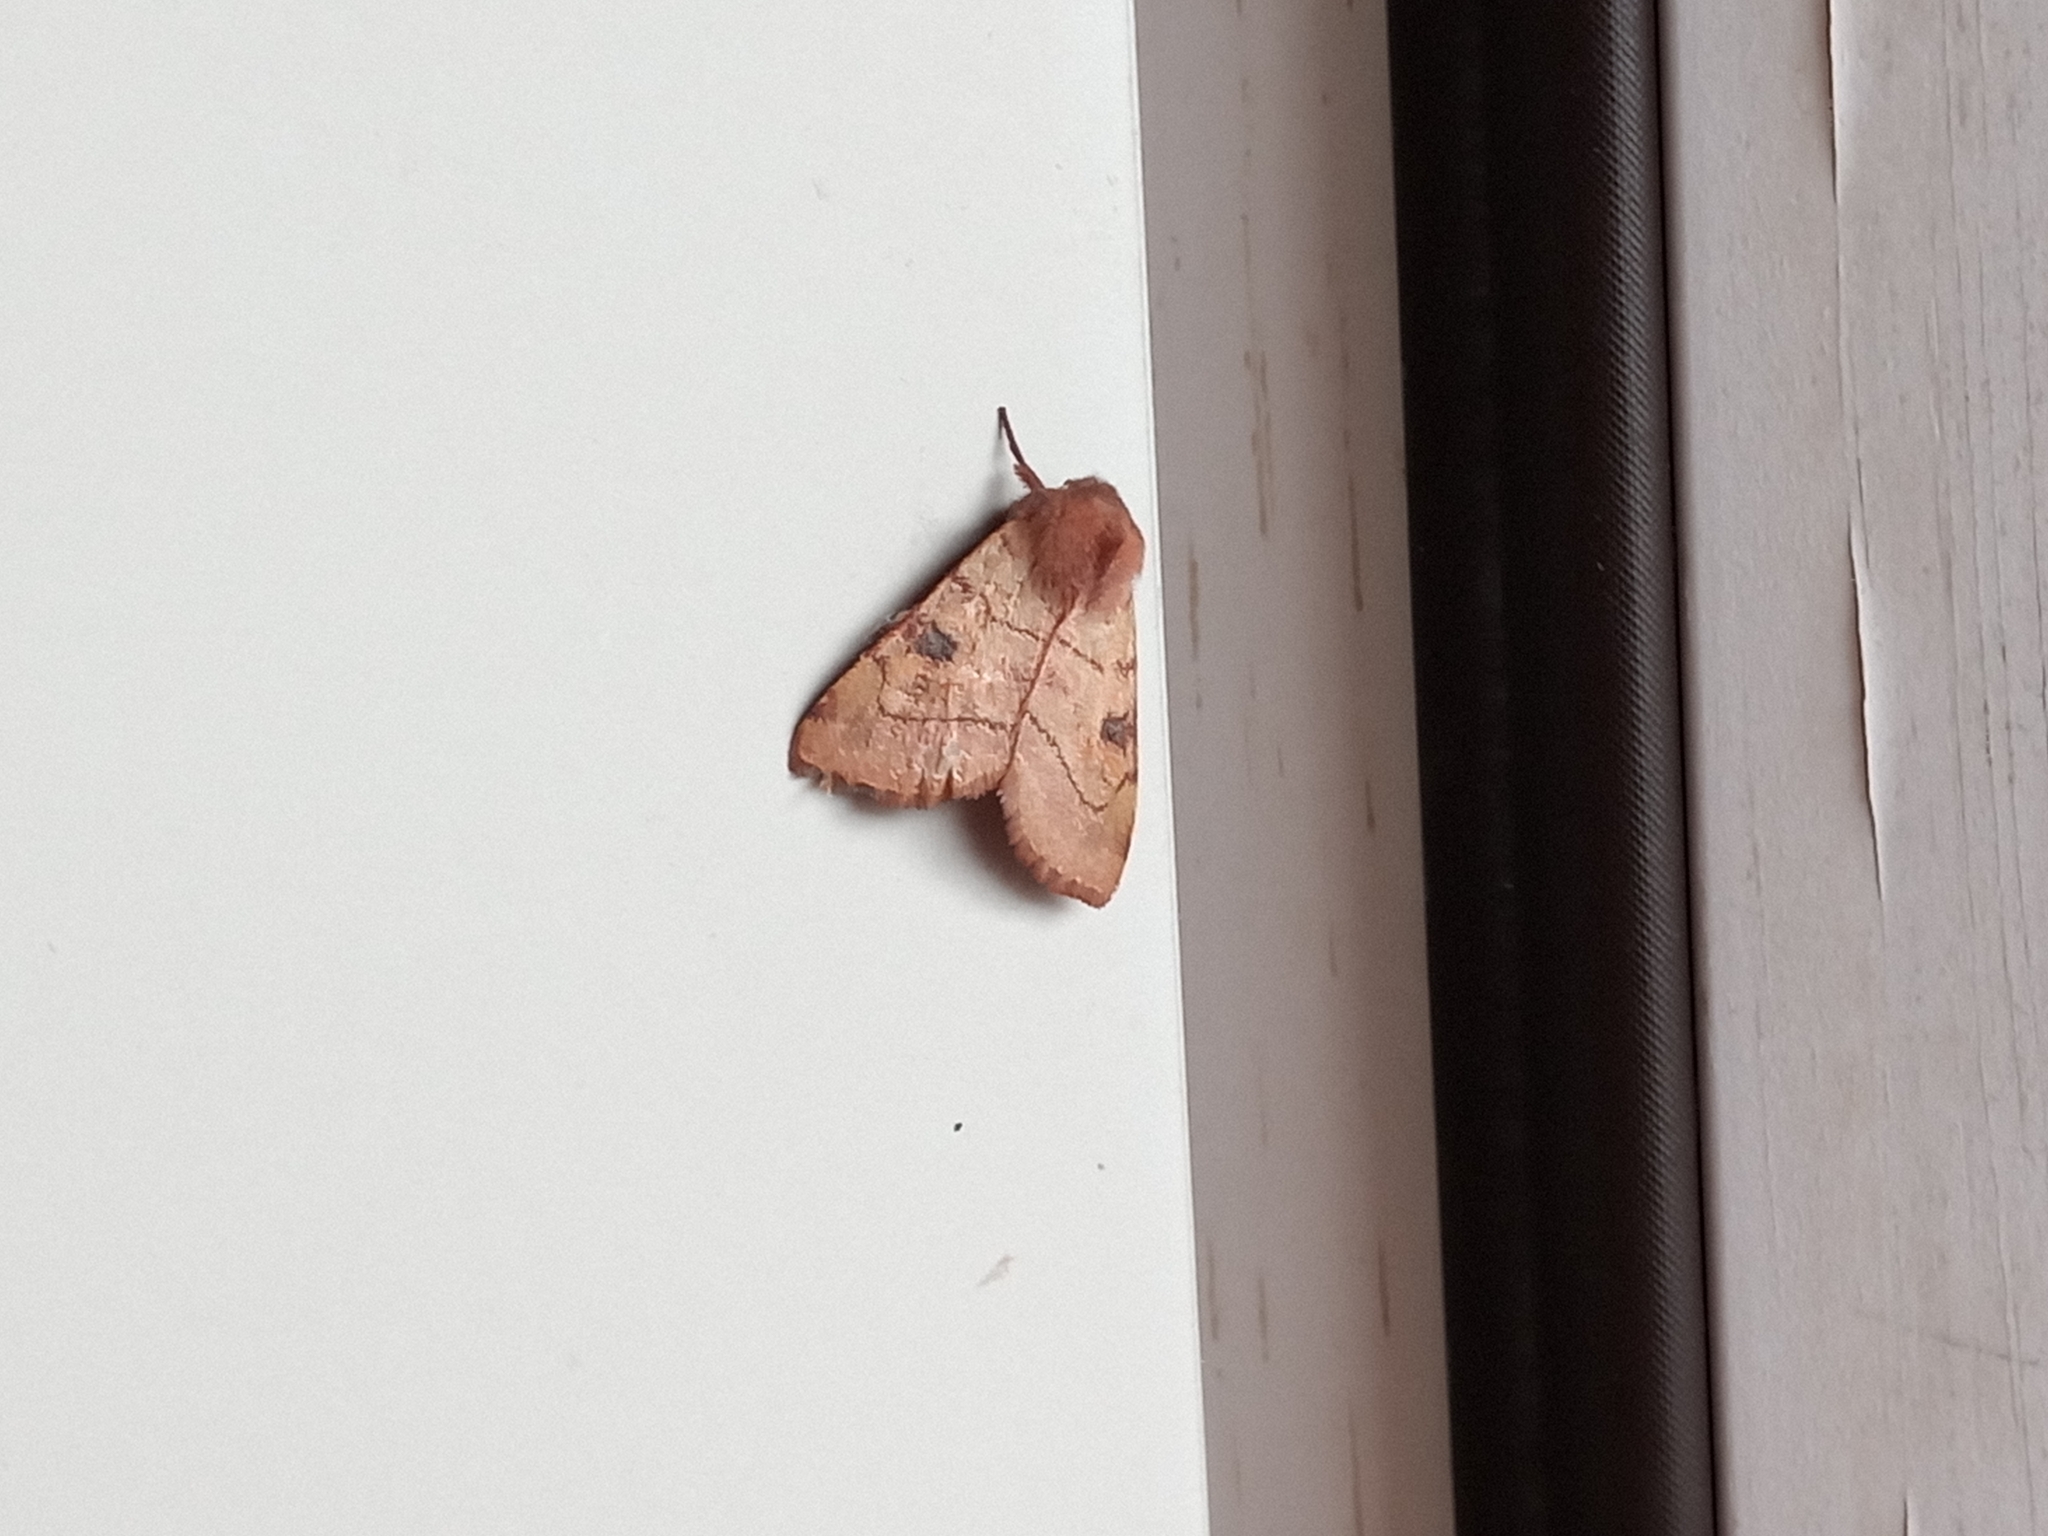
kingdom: Animalia
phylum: Arthropoda
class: Insecta
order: Lepidoptera
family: Noctuidae
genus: Choephora
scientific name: Choephora fungorum
